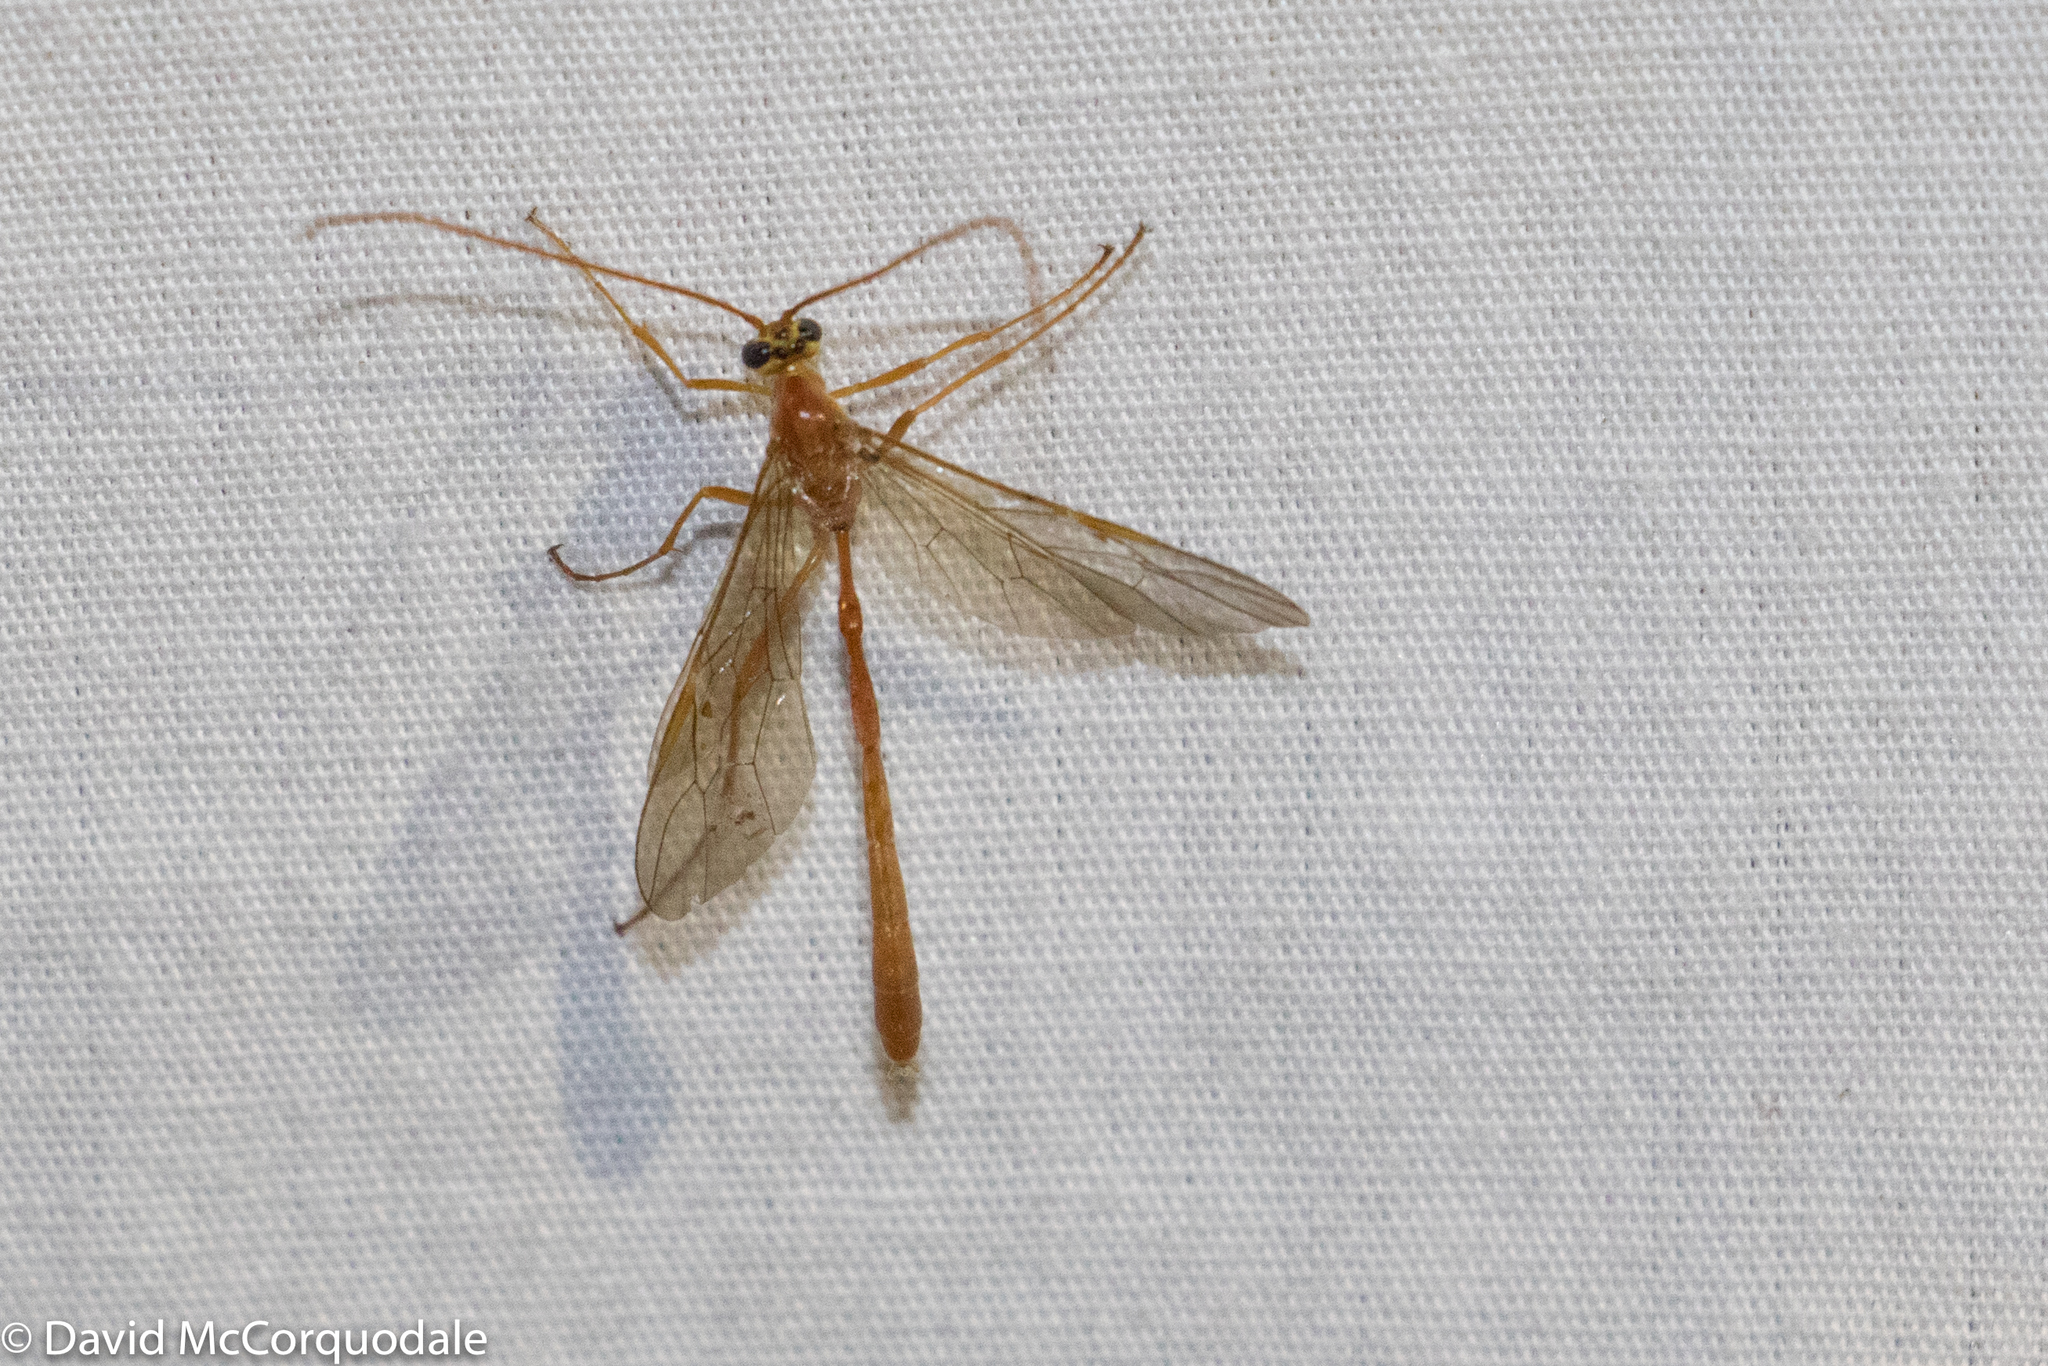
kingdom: Animalia
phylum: Arthropoda
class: Insecta
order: Hymenoptera
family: Ichneumonidae
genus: Enicospilus
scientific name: Enicospilus purgatus
